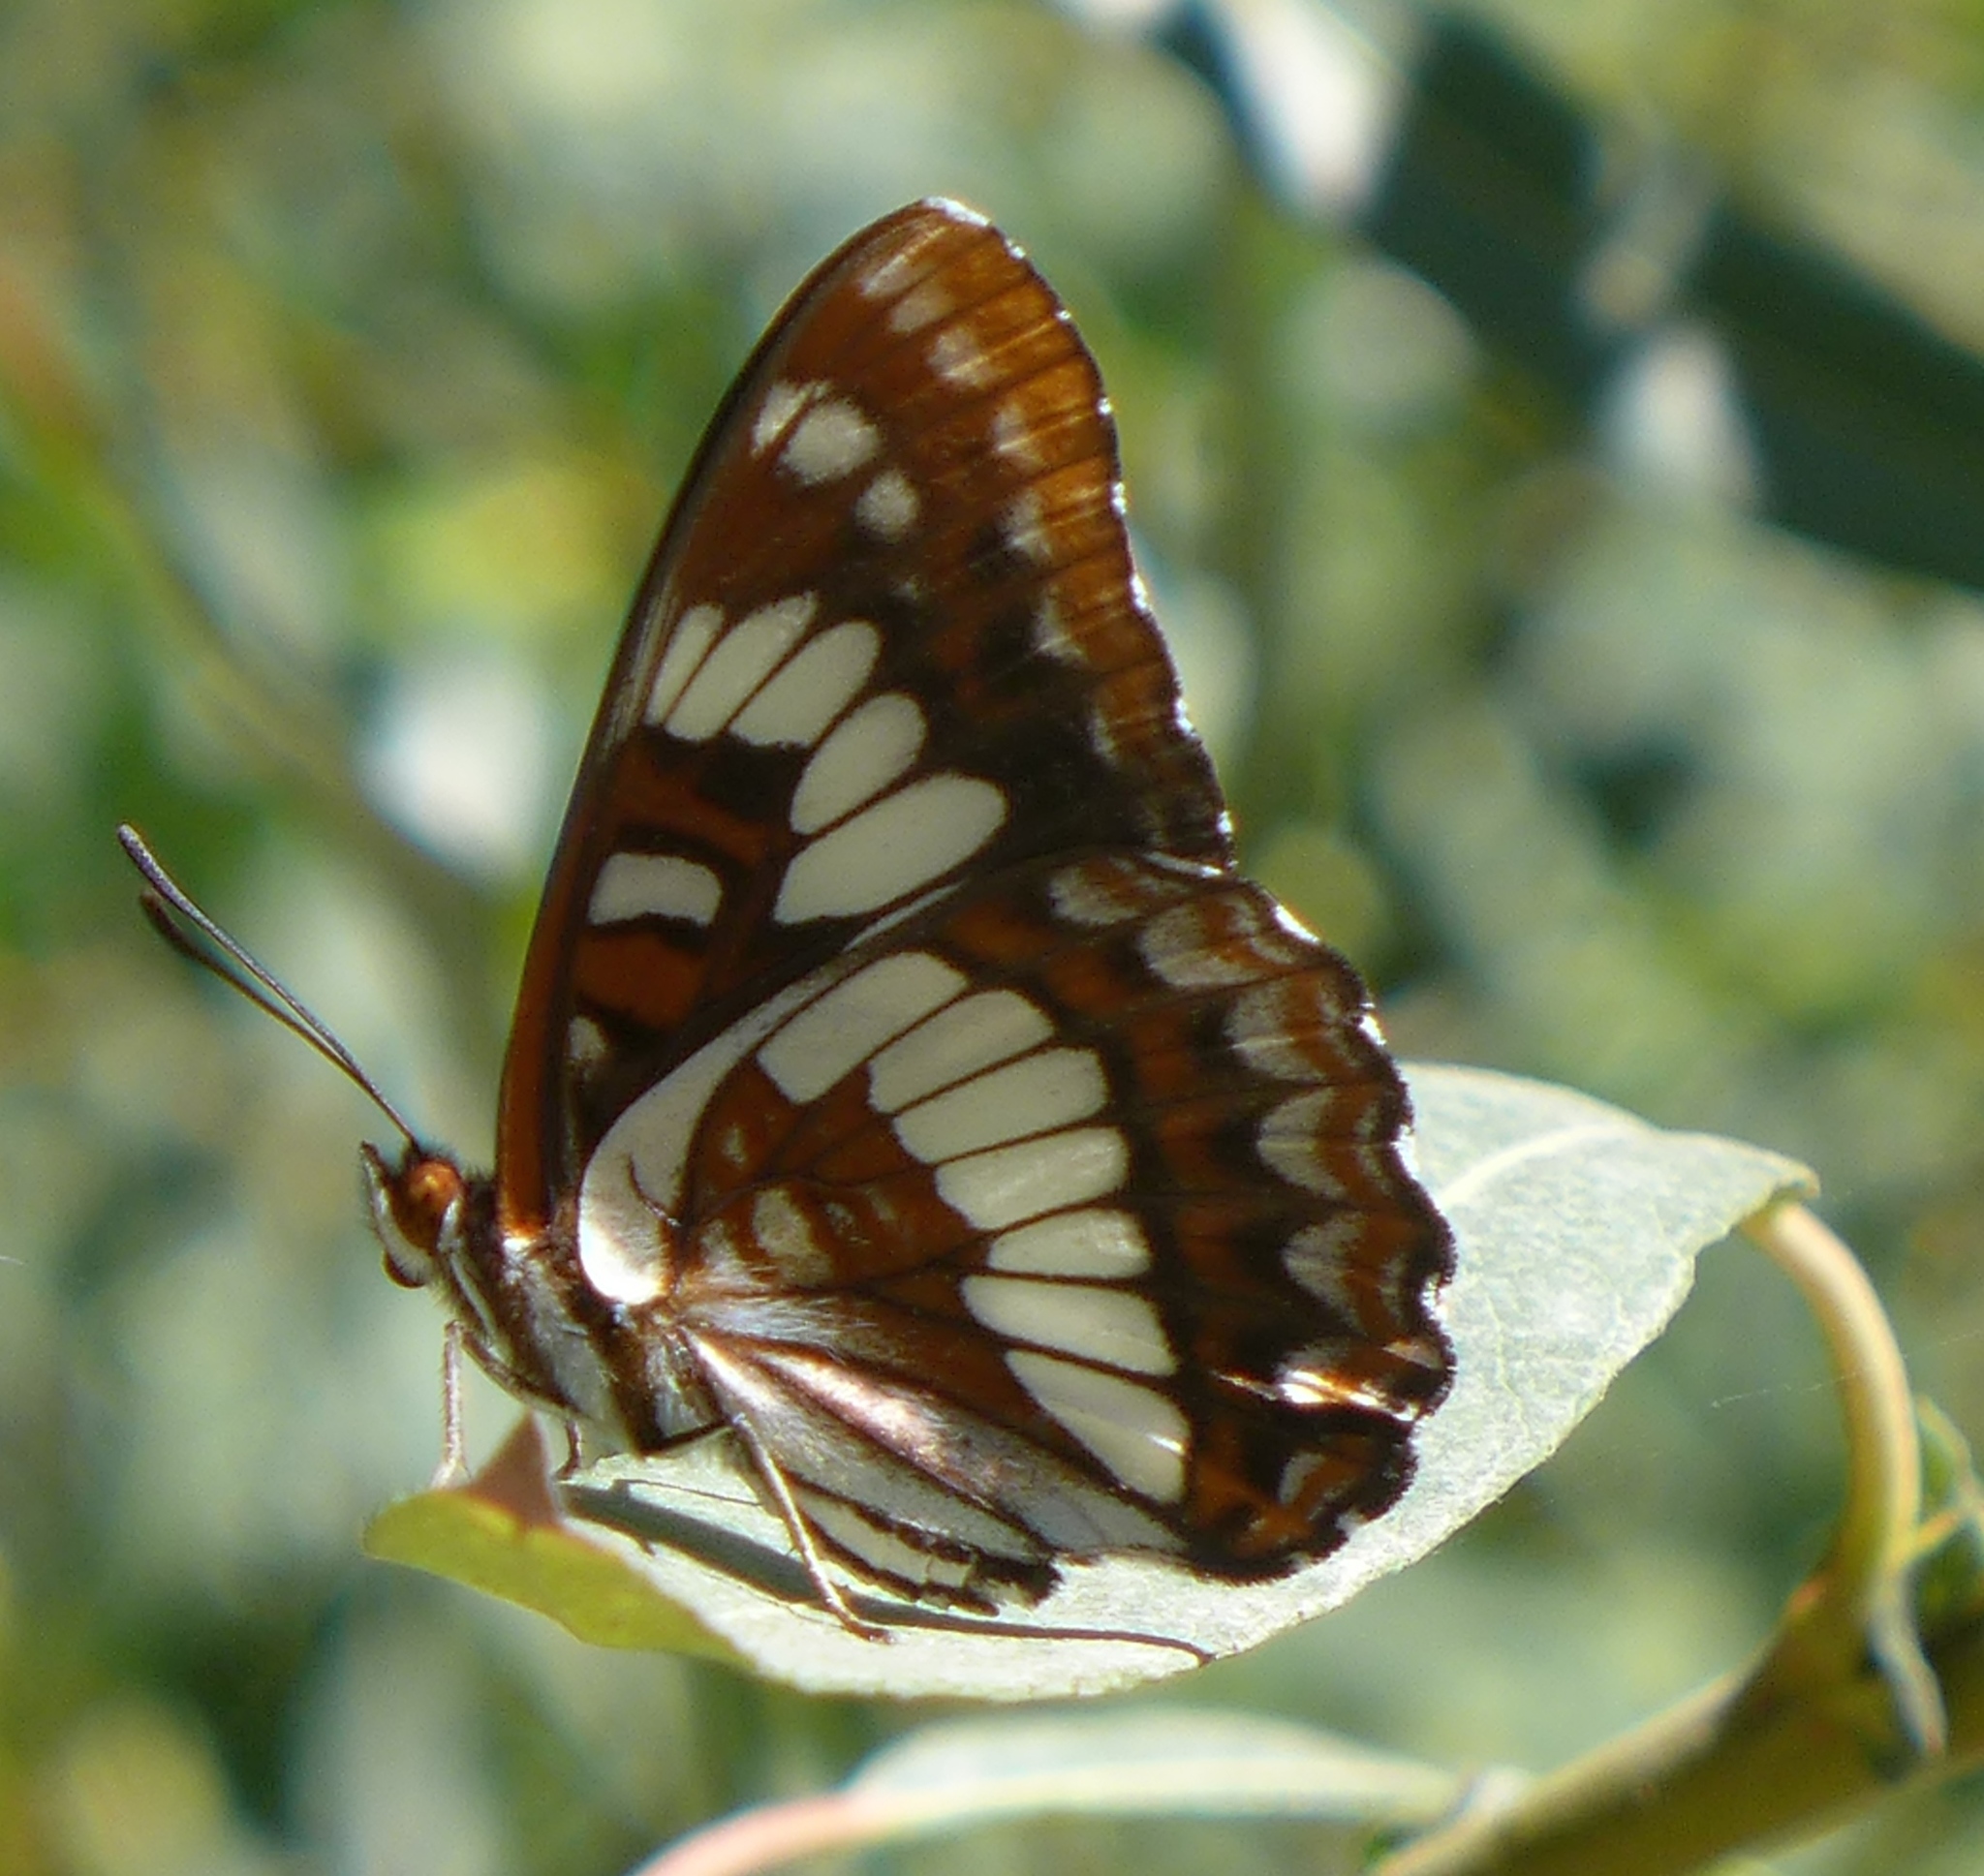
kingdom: Animalia
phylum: Arthropoda
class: Insecta
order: Lepidoptera
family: Nymphalidae
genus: Limenitis
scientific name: Limenitis lorquini
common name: Lorquin's admiral
